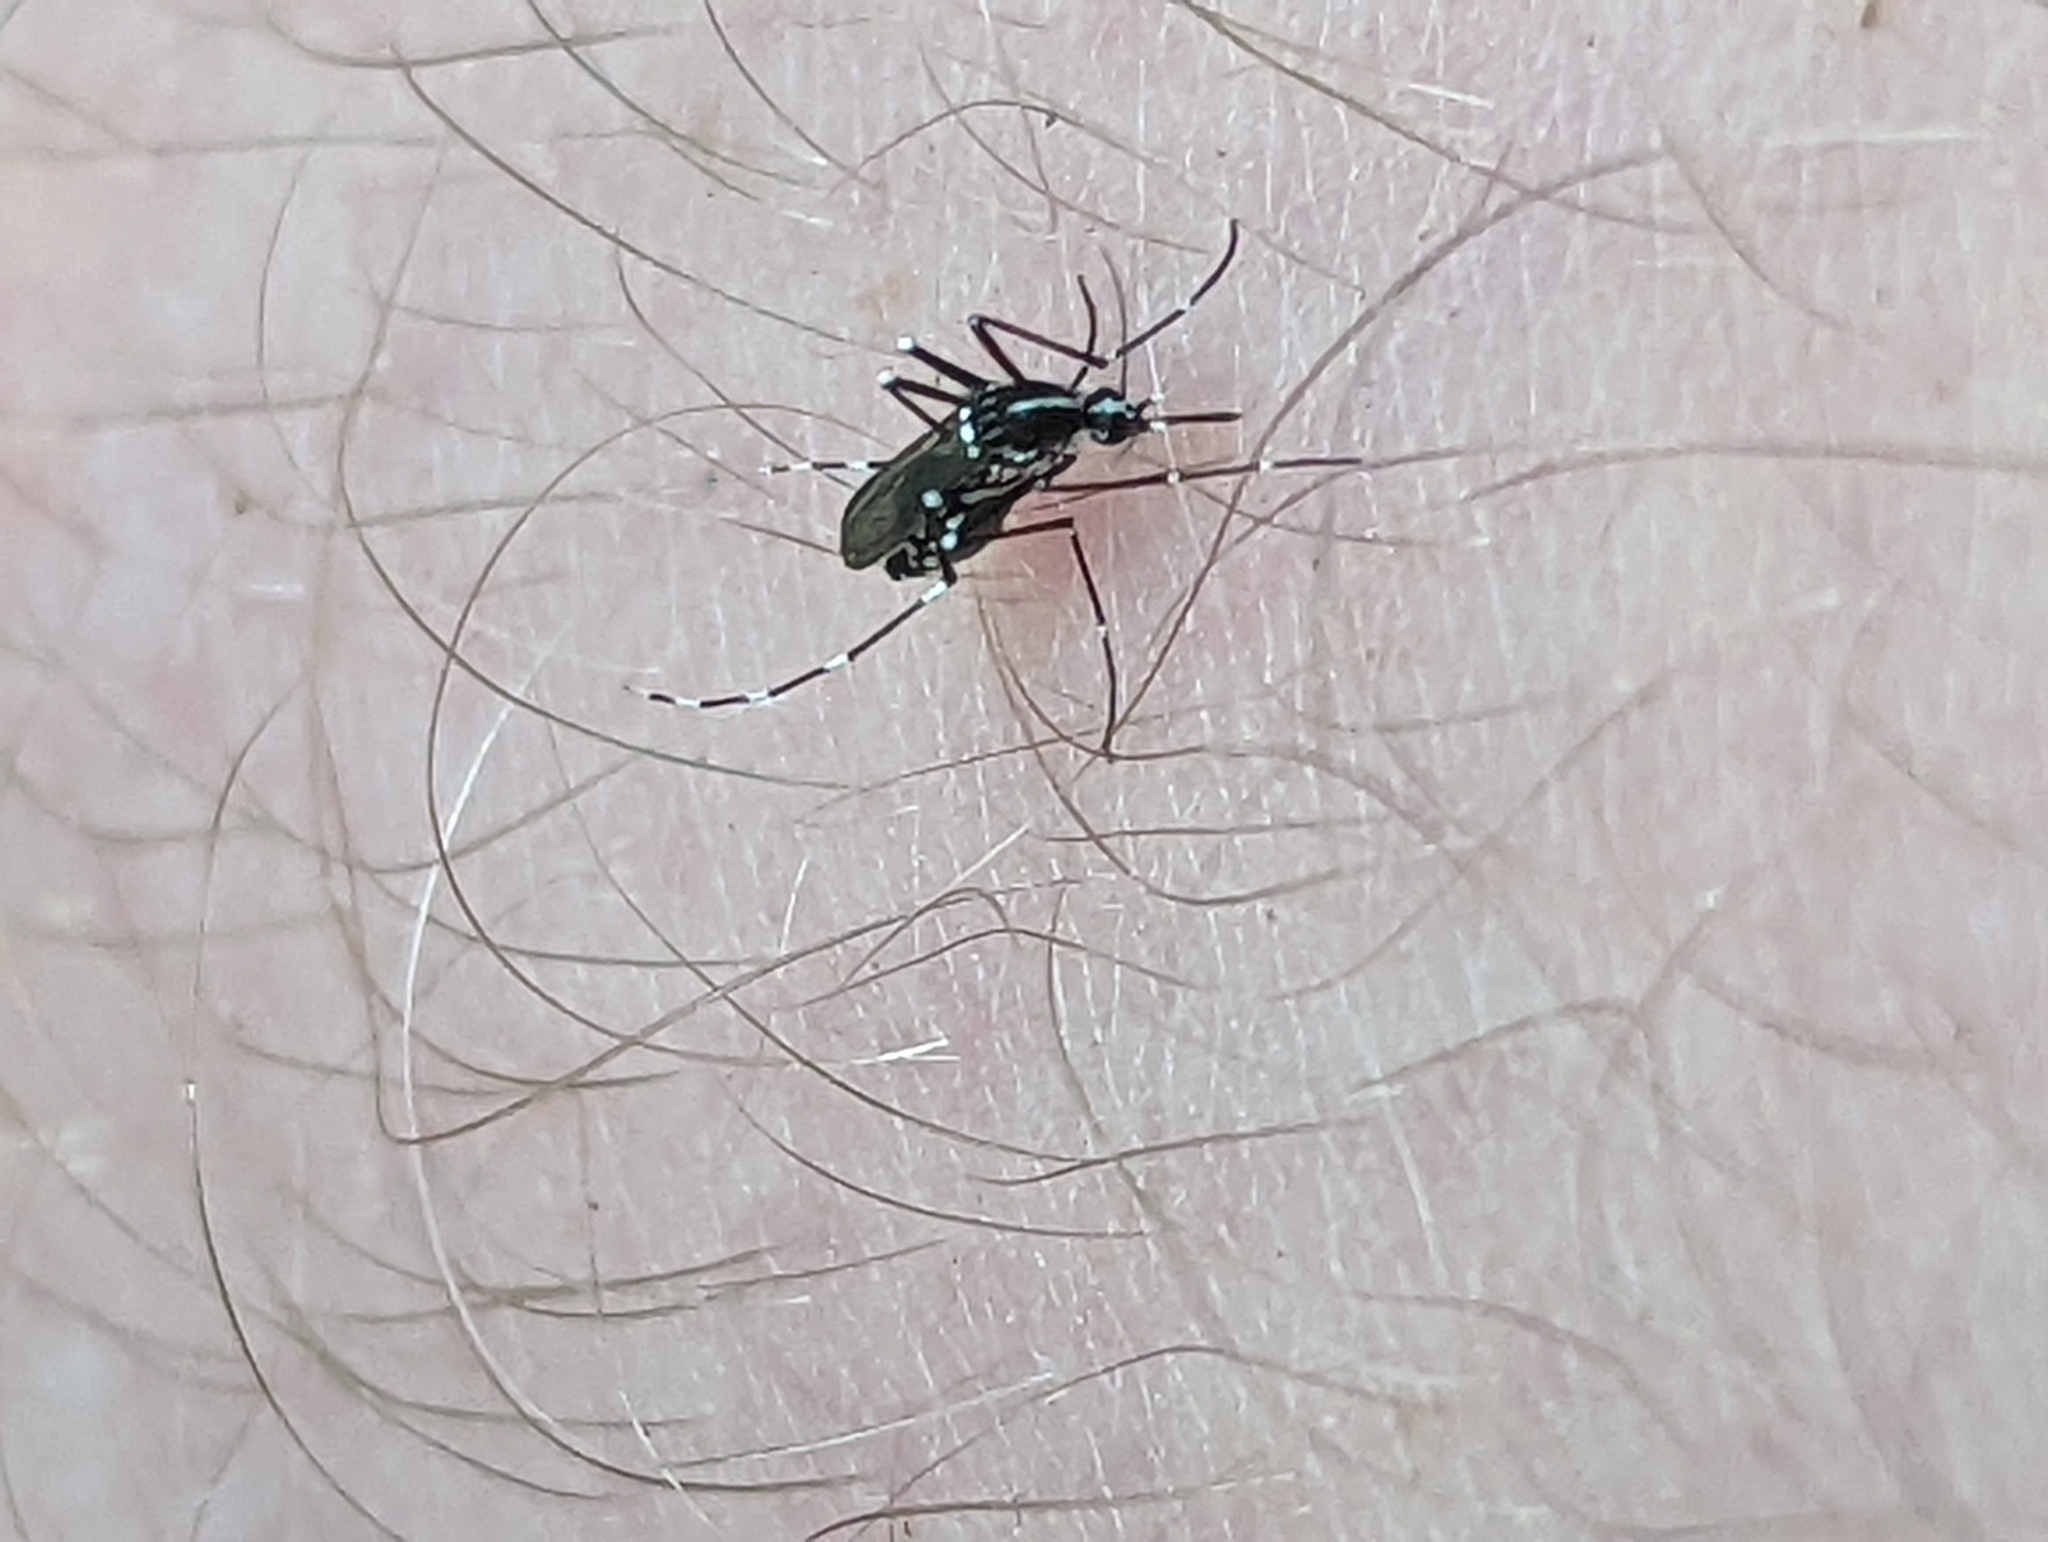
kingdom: Animalia
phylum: Arthropoda
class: Insecta
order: Diptera
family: Culicidae
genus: Aedes
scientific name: Aedes albopictus
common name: Tiger mosquito
